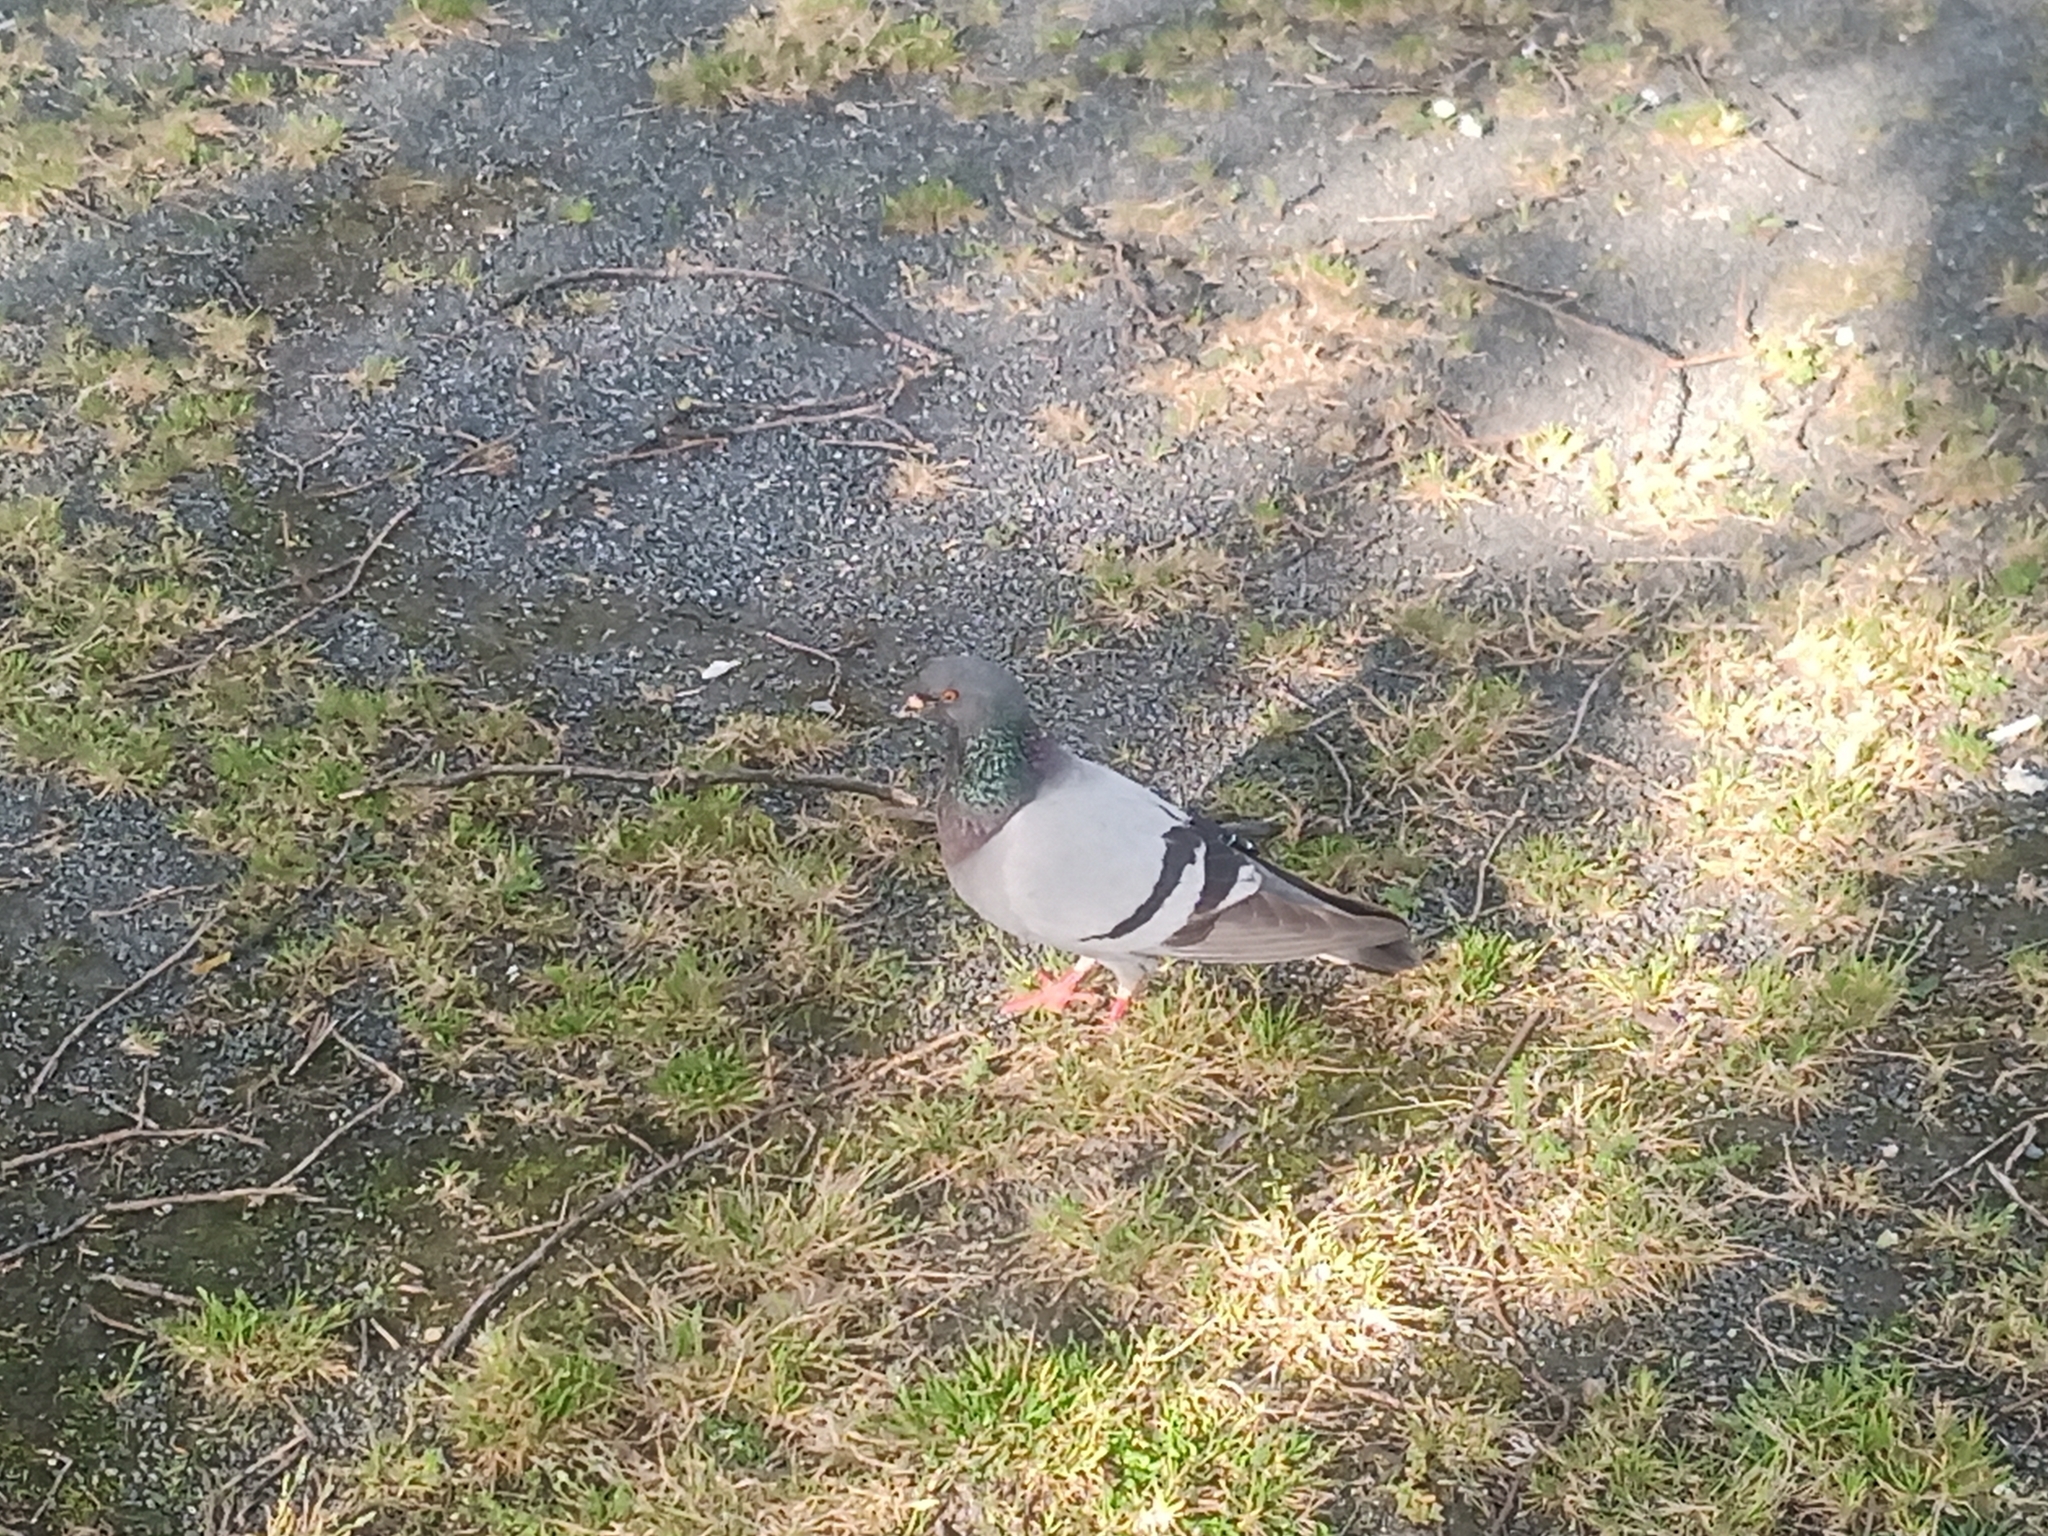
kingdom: Animalia
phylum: Chordata
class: Aves
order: Columbiformes
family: Columbidae
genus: Columba
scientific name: Columba livia
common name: Rock pigeon
